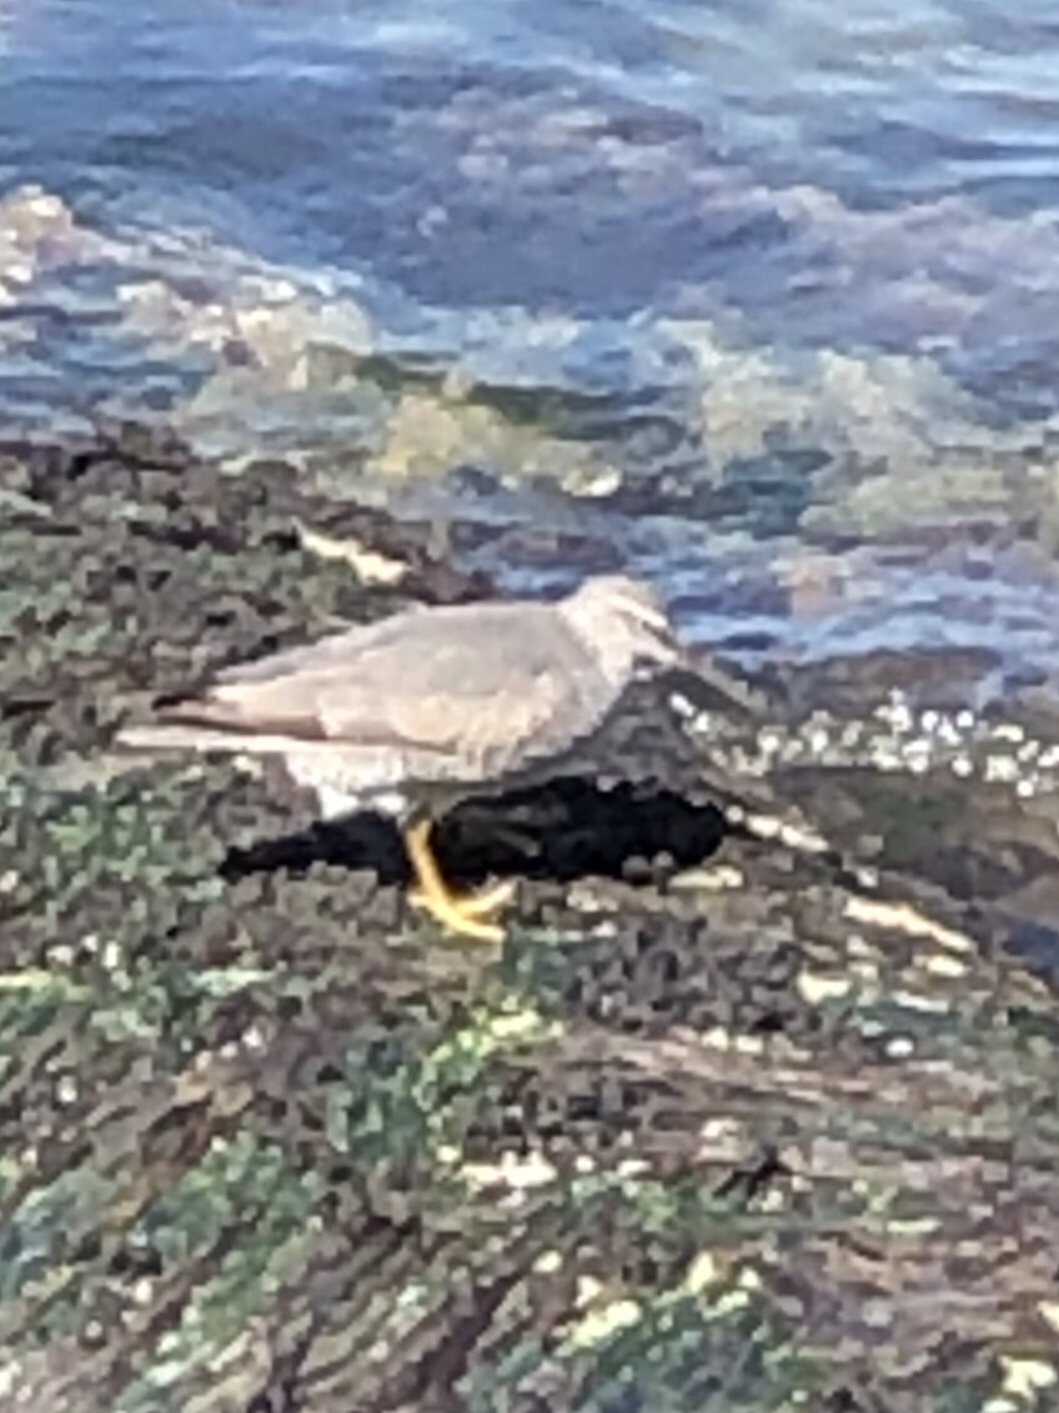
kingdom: Animalia
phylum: Chordata
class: Aves
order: Charadriiformes
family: Scolopacidae
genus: Tringa
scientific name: Tringa incana
